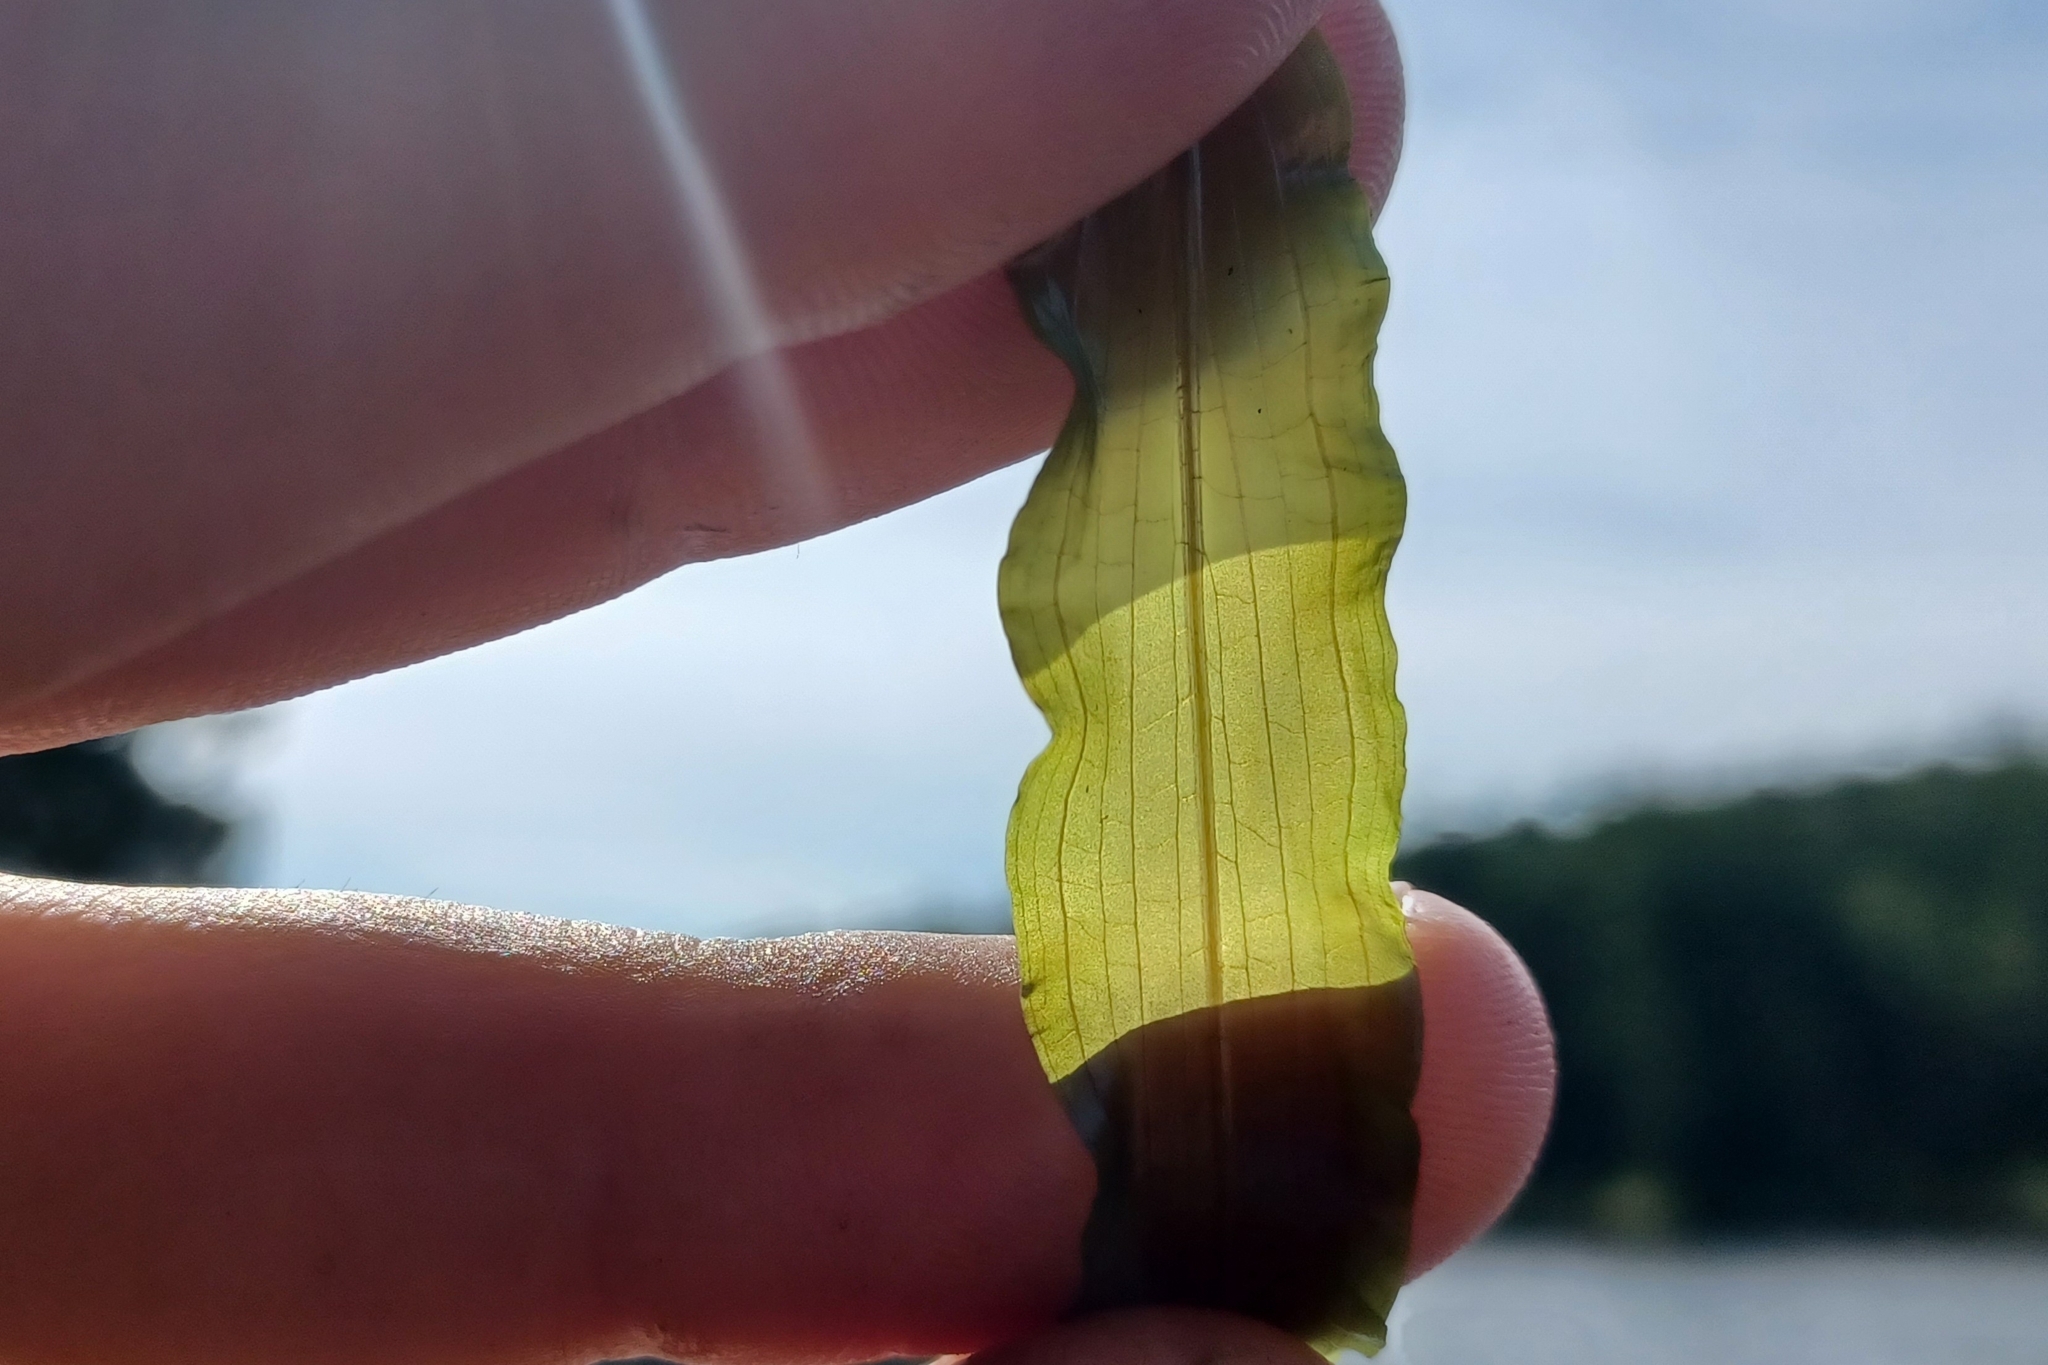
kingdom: Plantae
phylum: Tracheophyta
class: Liliopsida
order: Alismatales
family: Potamogetonaceae
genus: Potamogeton
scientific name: Potamogeton praelongus
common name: Long-stalked pondweed
